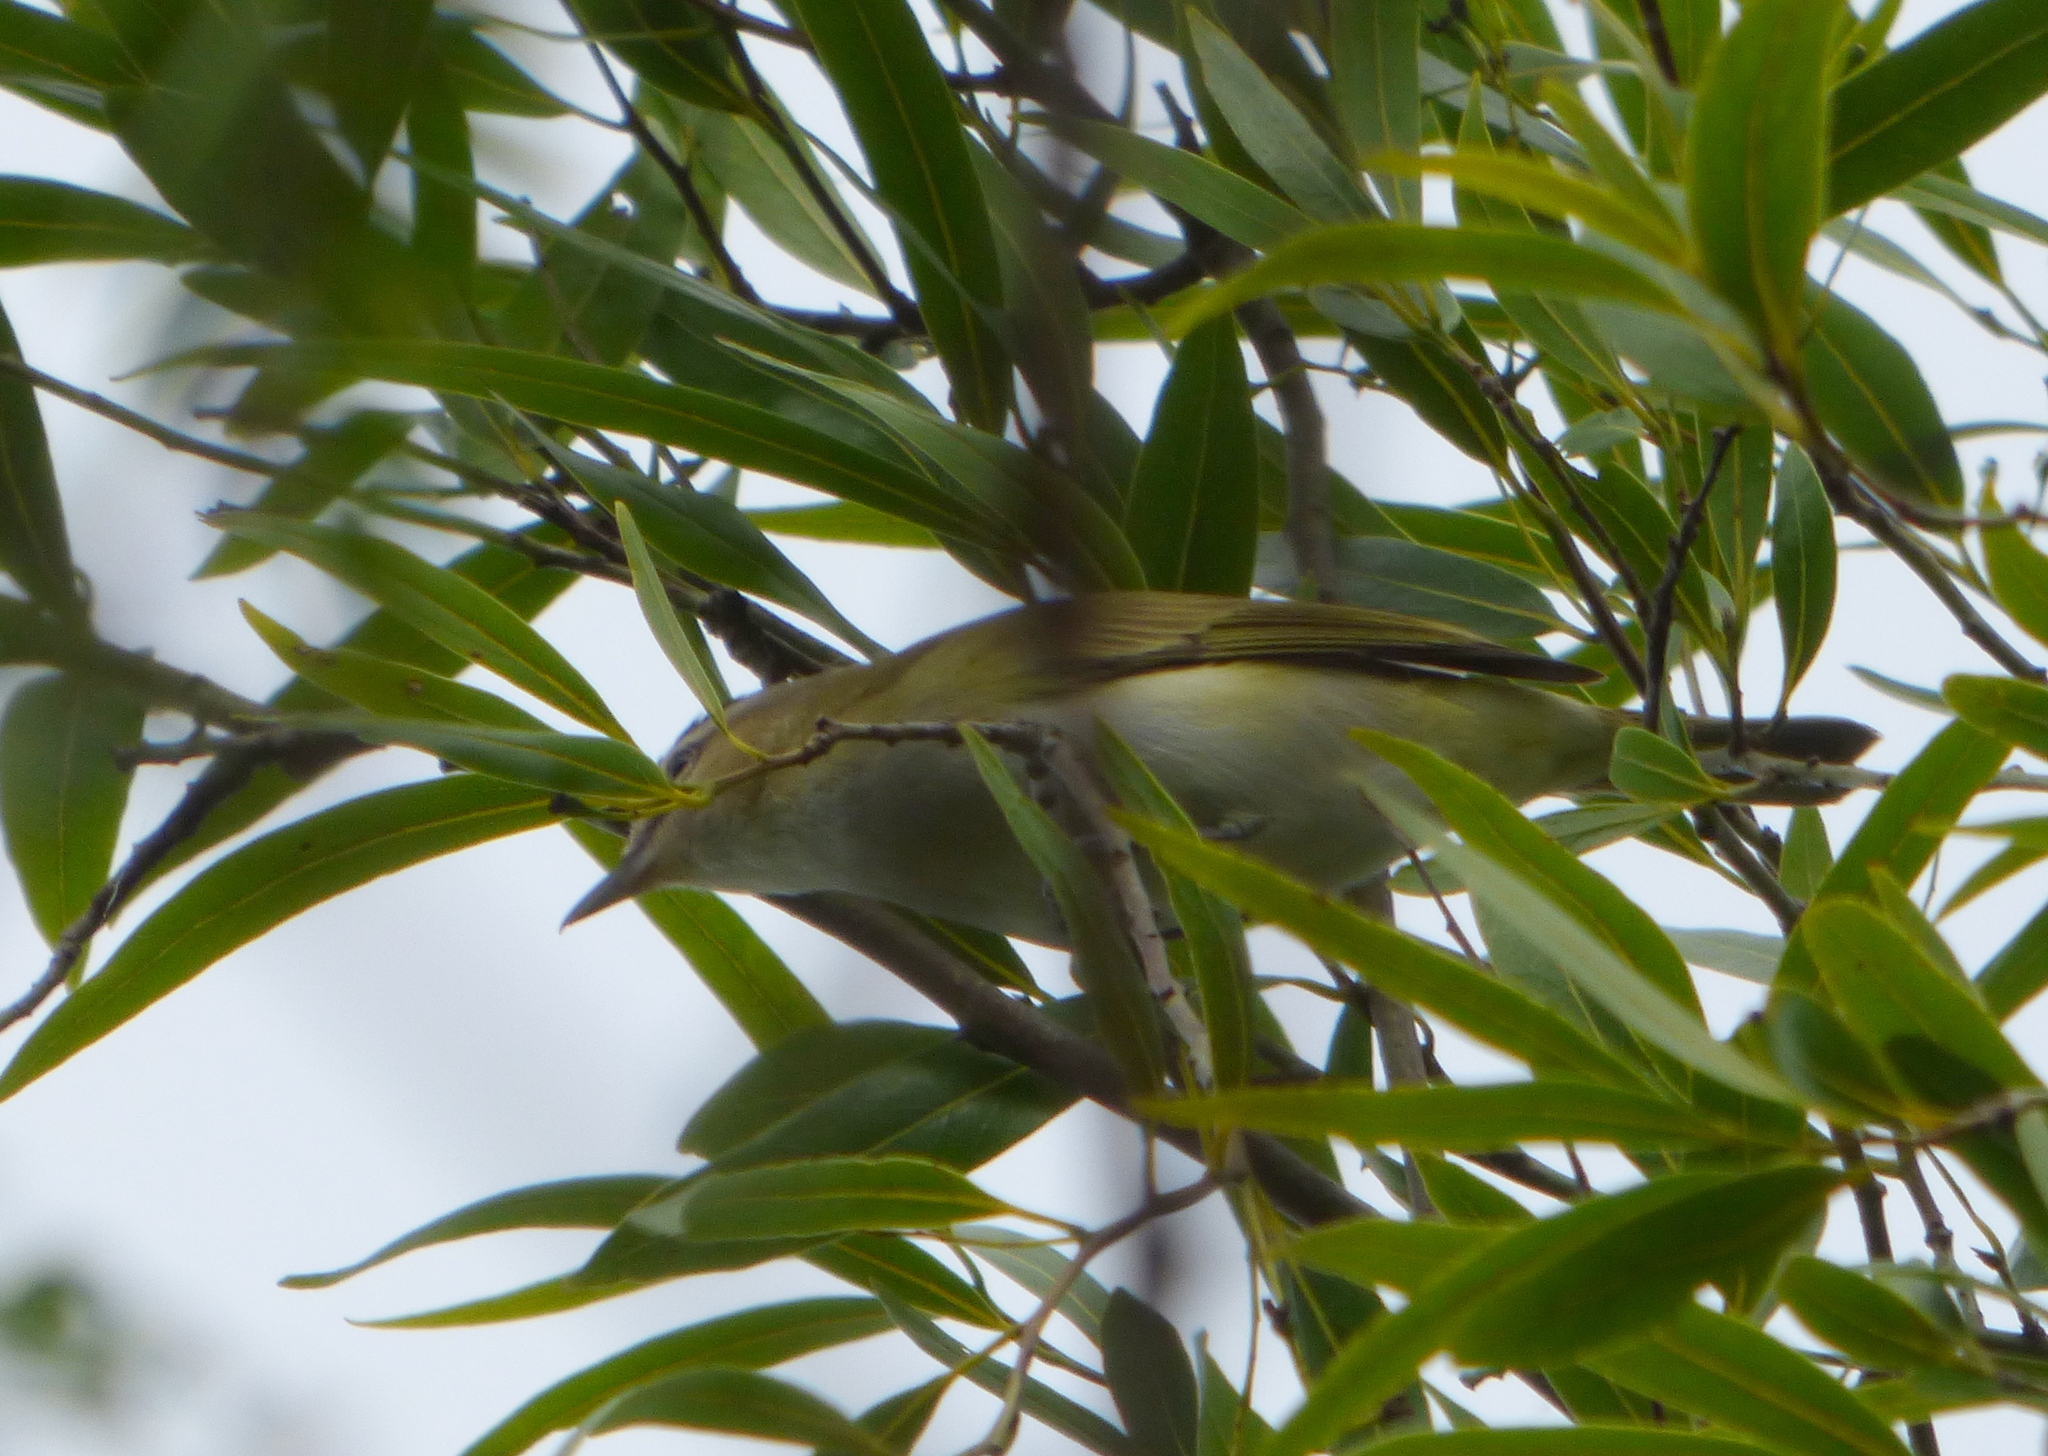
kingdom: Animalia
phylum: Chordata
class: Aves
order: Passeriformes
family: Vireonidae
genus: Vireo
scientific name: Vireo olivaceus
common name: Red-eyed vireo
